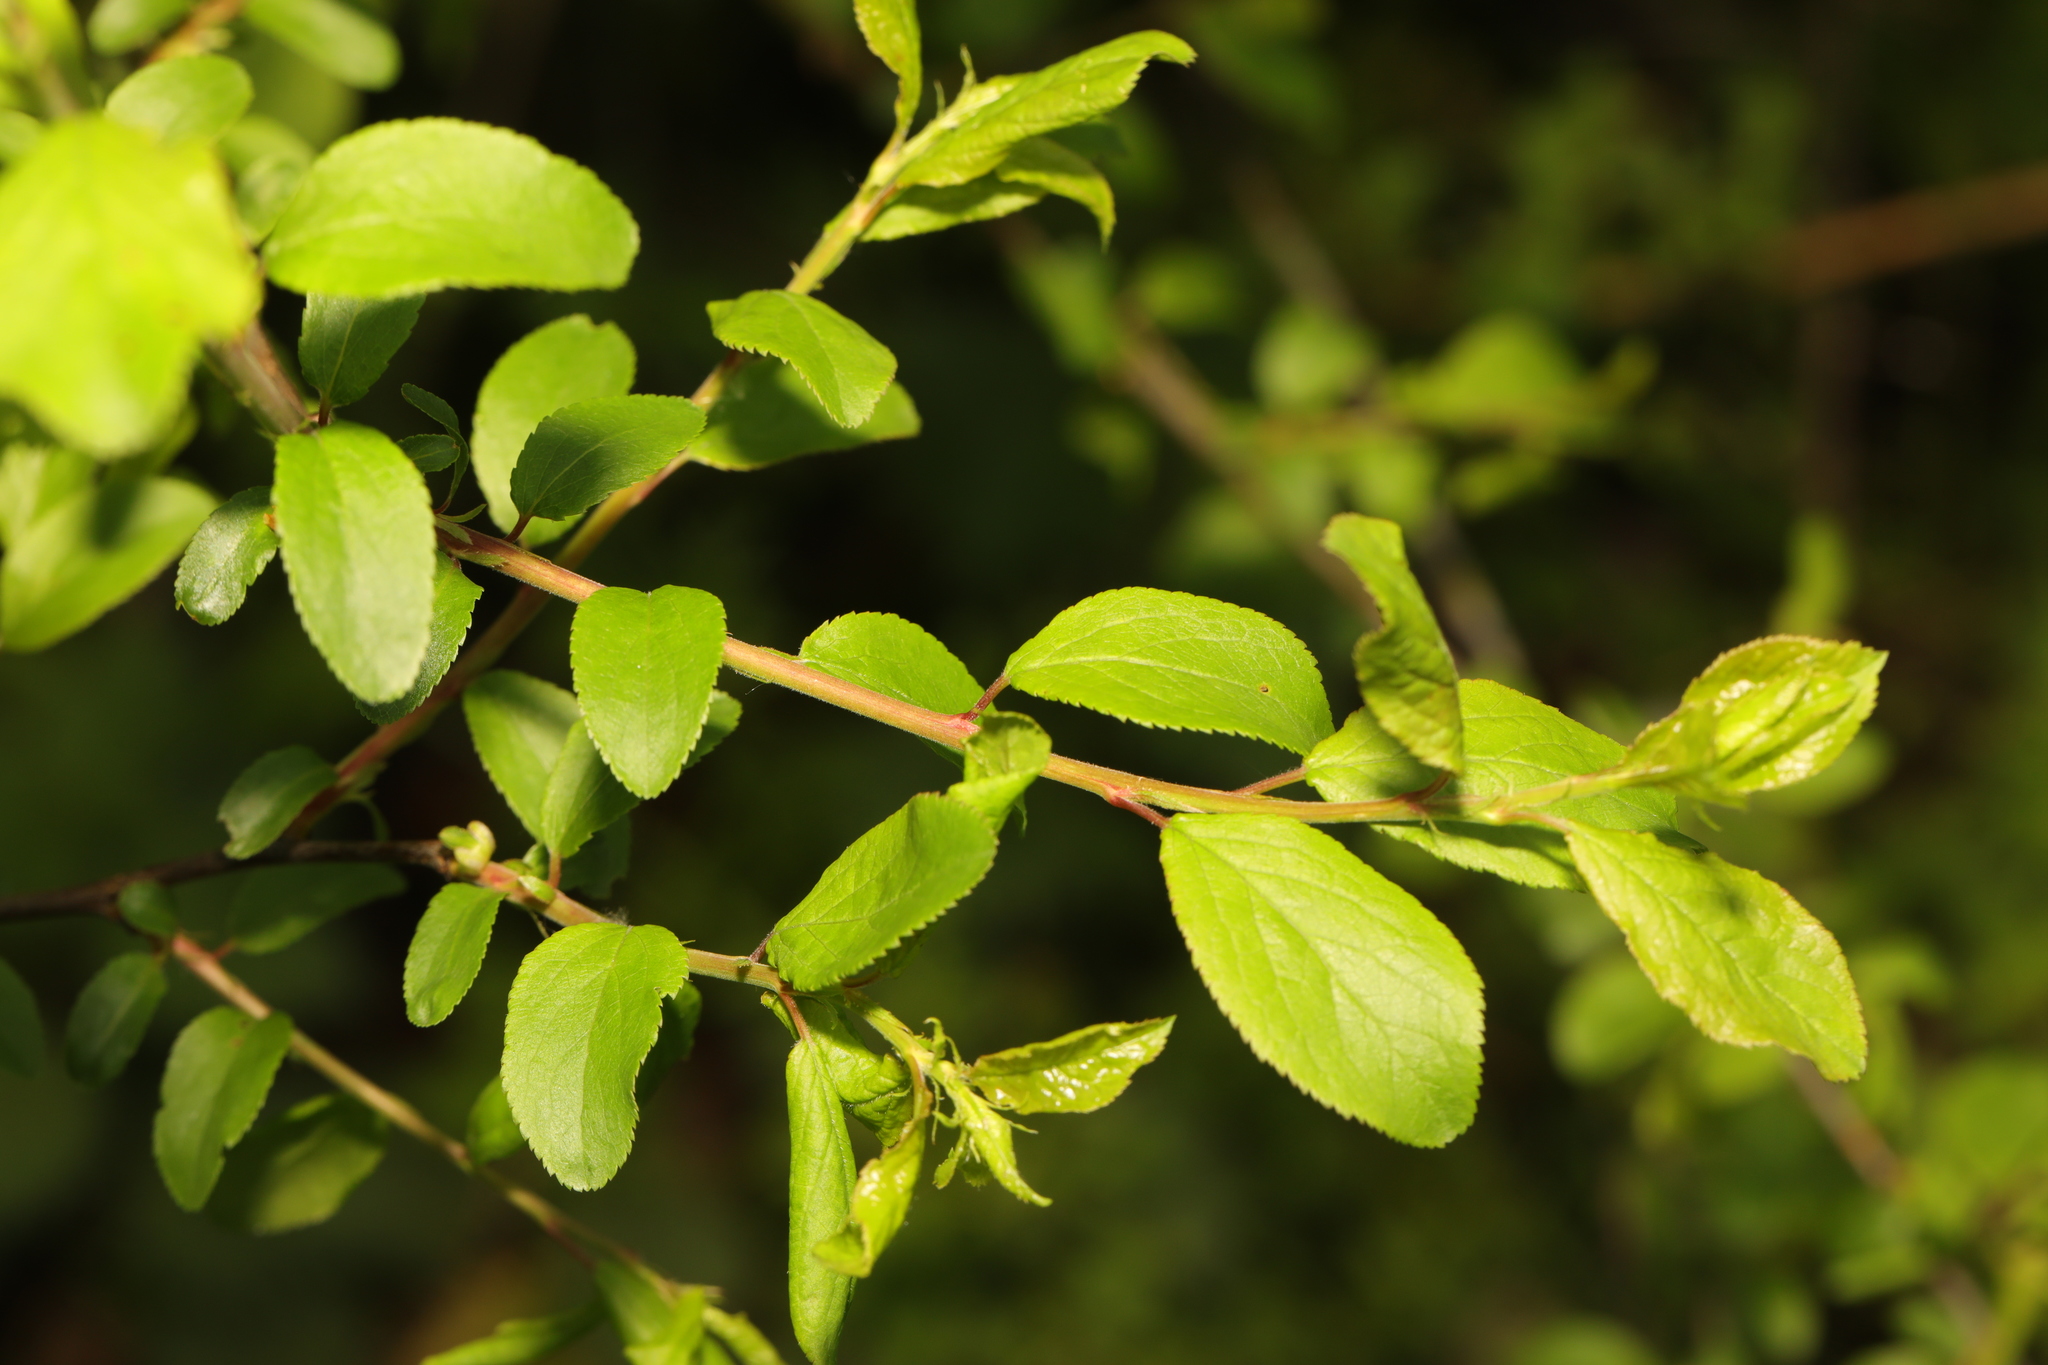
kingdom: Plantae
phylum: Tracheophyta
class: Magnoliopsida
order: Rosales
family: Rosaceae
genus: Prunus
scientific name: Prunus spinosa
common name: Blackthorn
